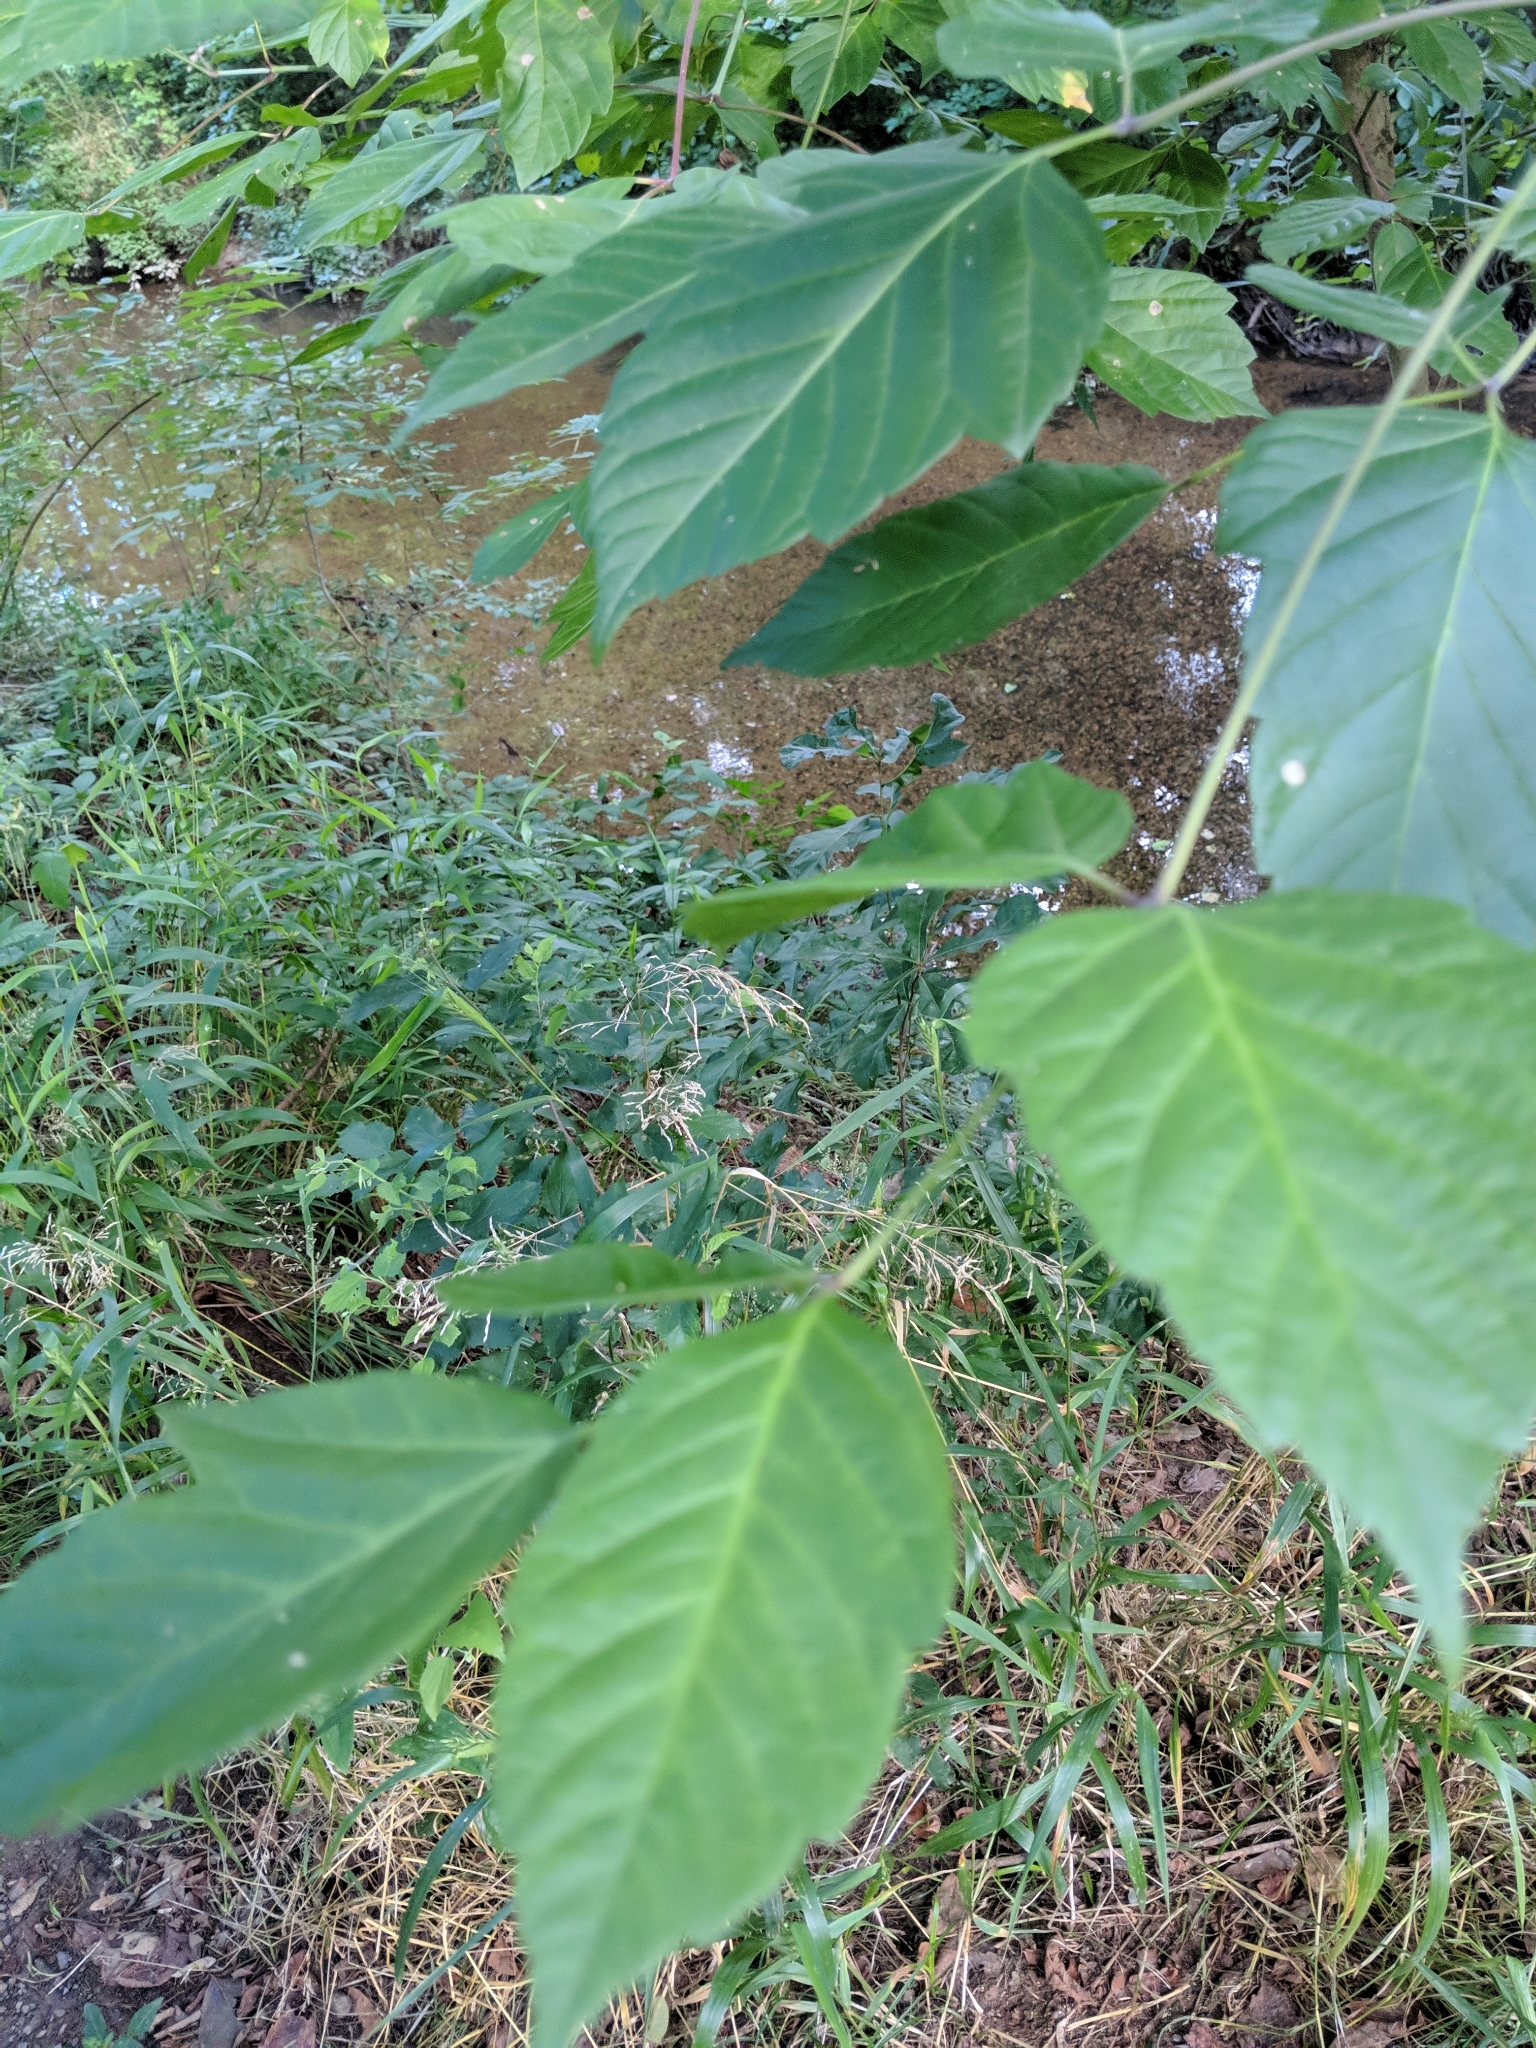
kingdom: Plantae
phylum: Tracheophyta
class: Magnoliopsida
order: Sapindales
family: Sapindaceae
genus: Acer
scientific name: Acer negundo
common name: Ashleaf maple
